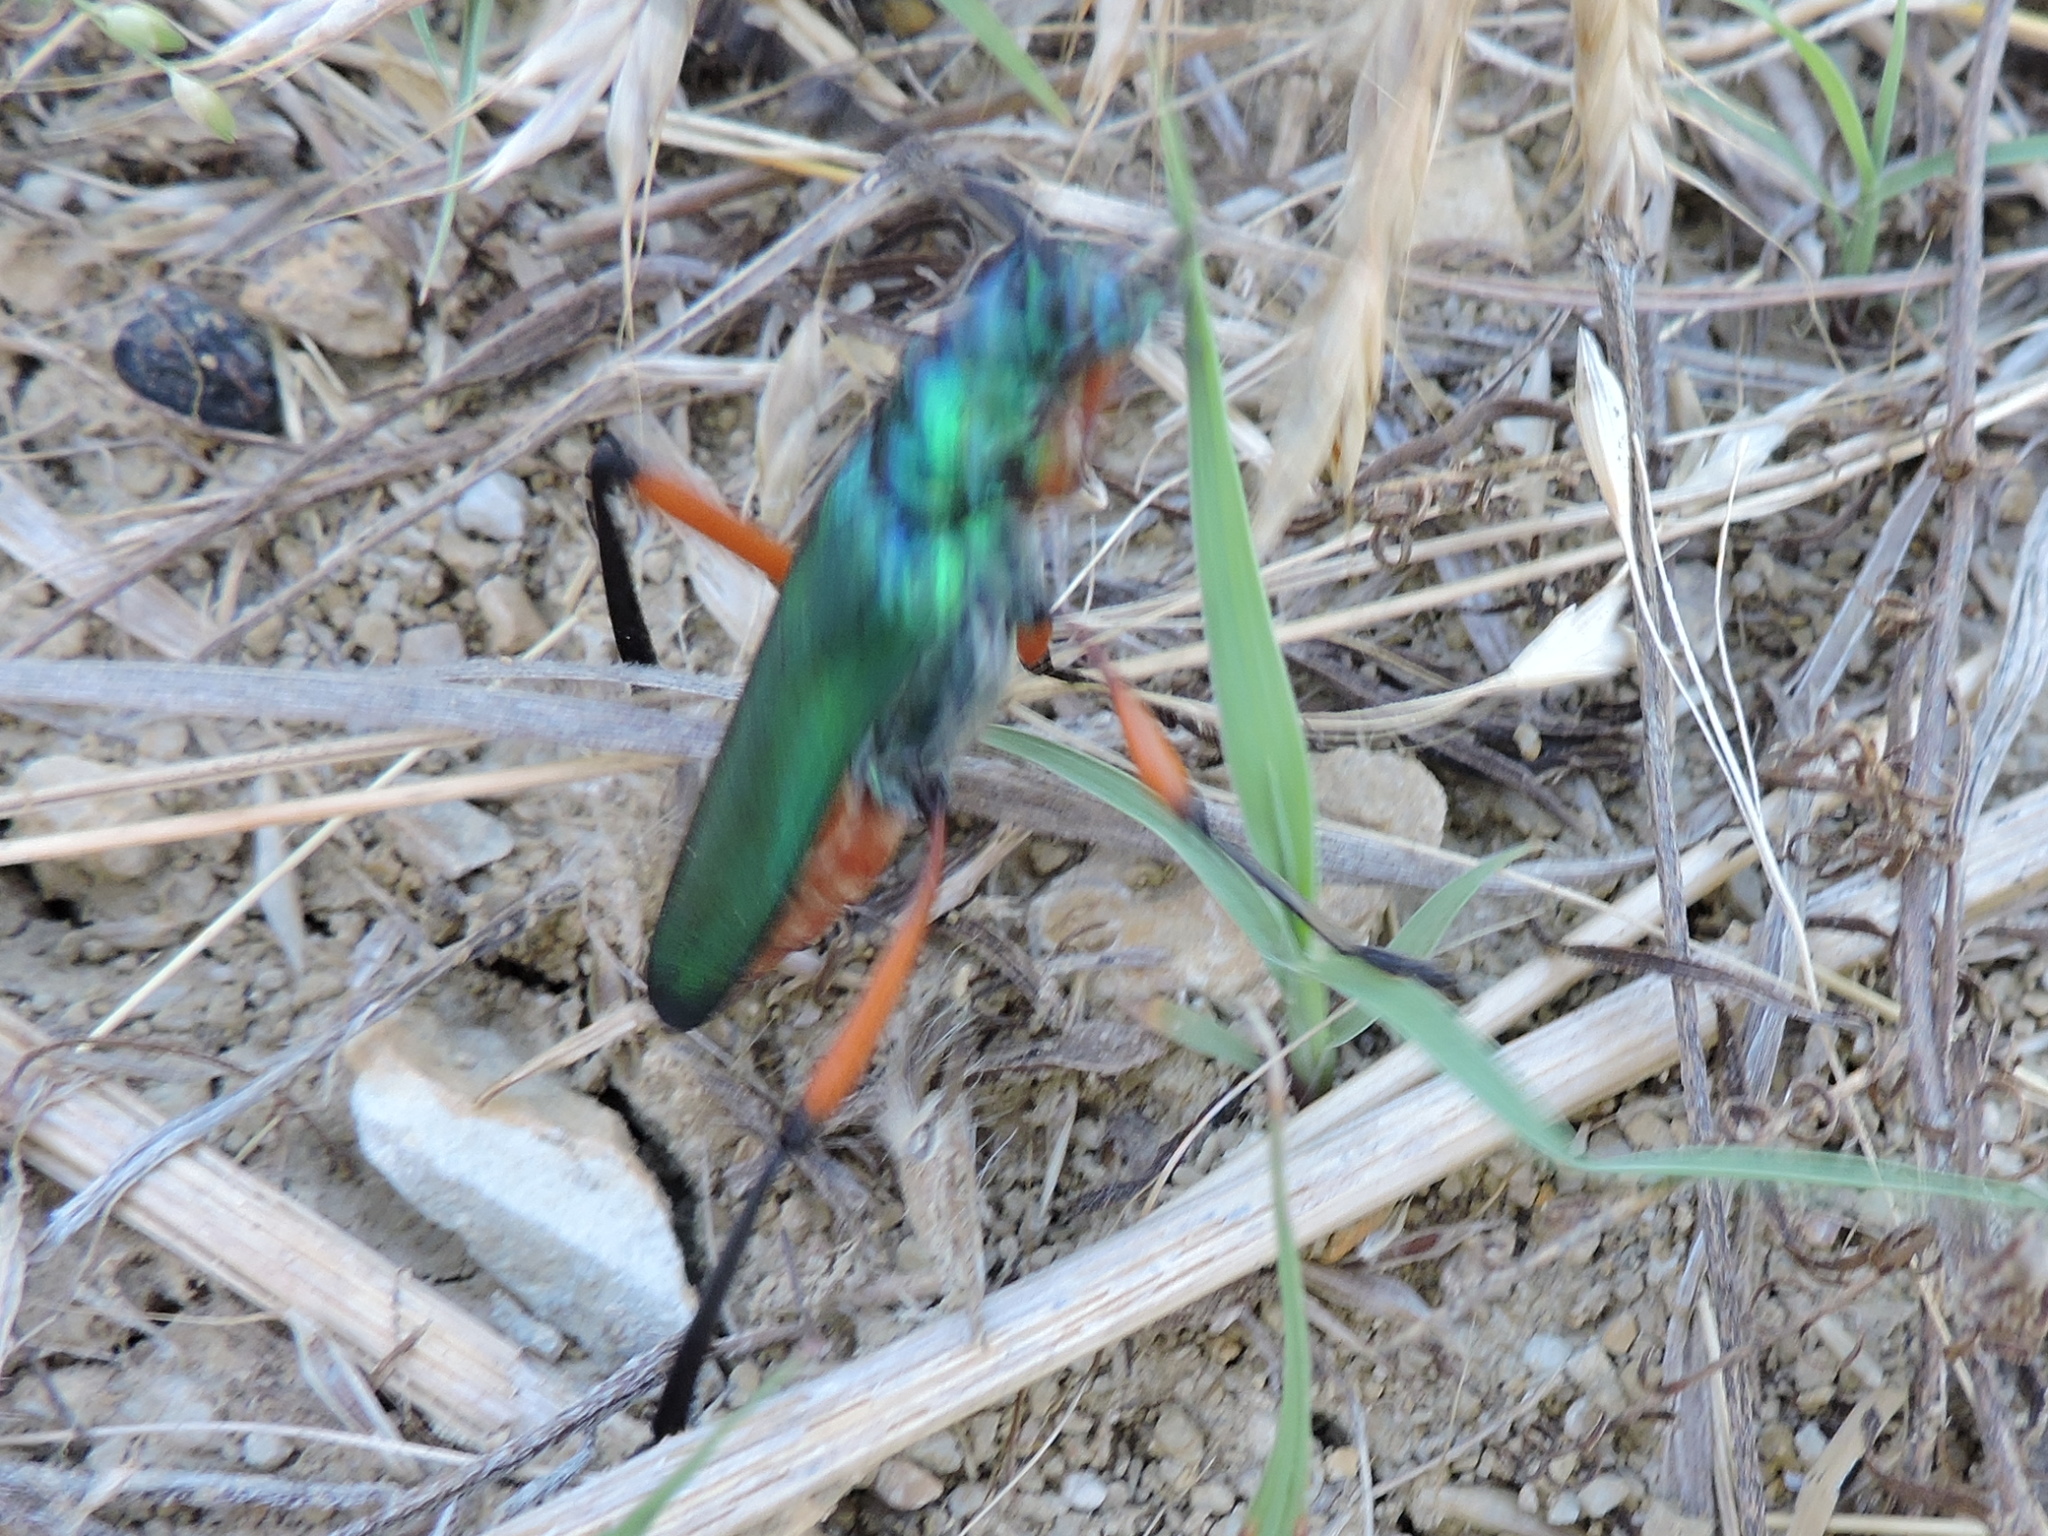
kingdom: Animalia
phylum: Arthropoda
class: Insecta
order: Coleoptera
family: Cerambycidae
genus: Plinthocoelium
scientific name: Plinthocoelium suaveolens
